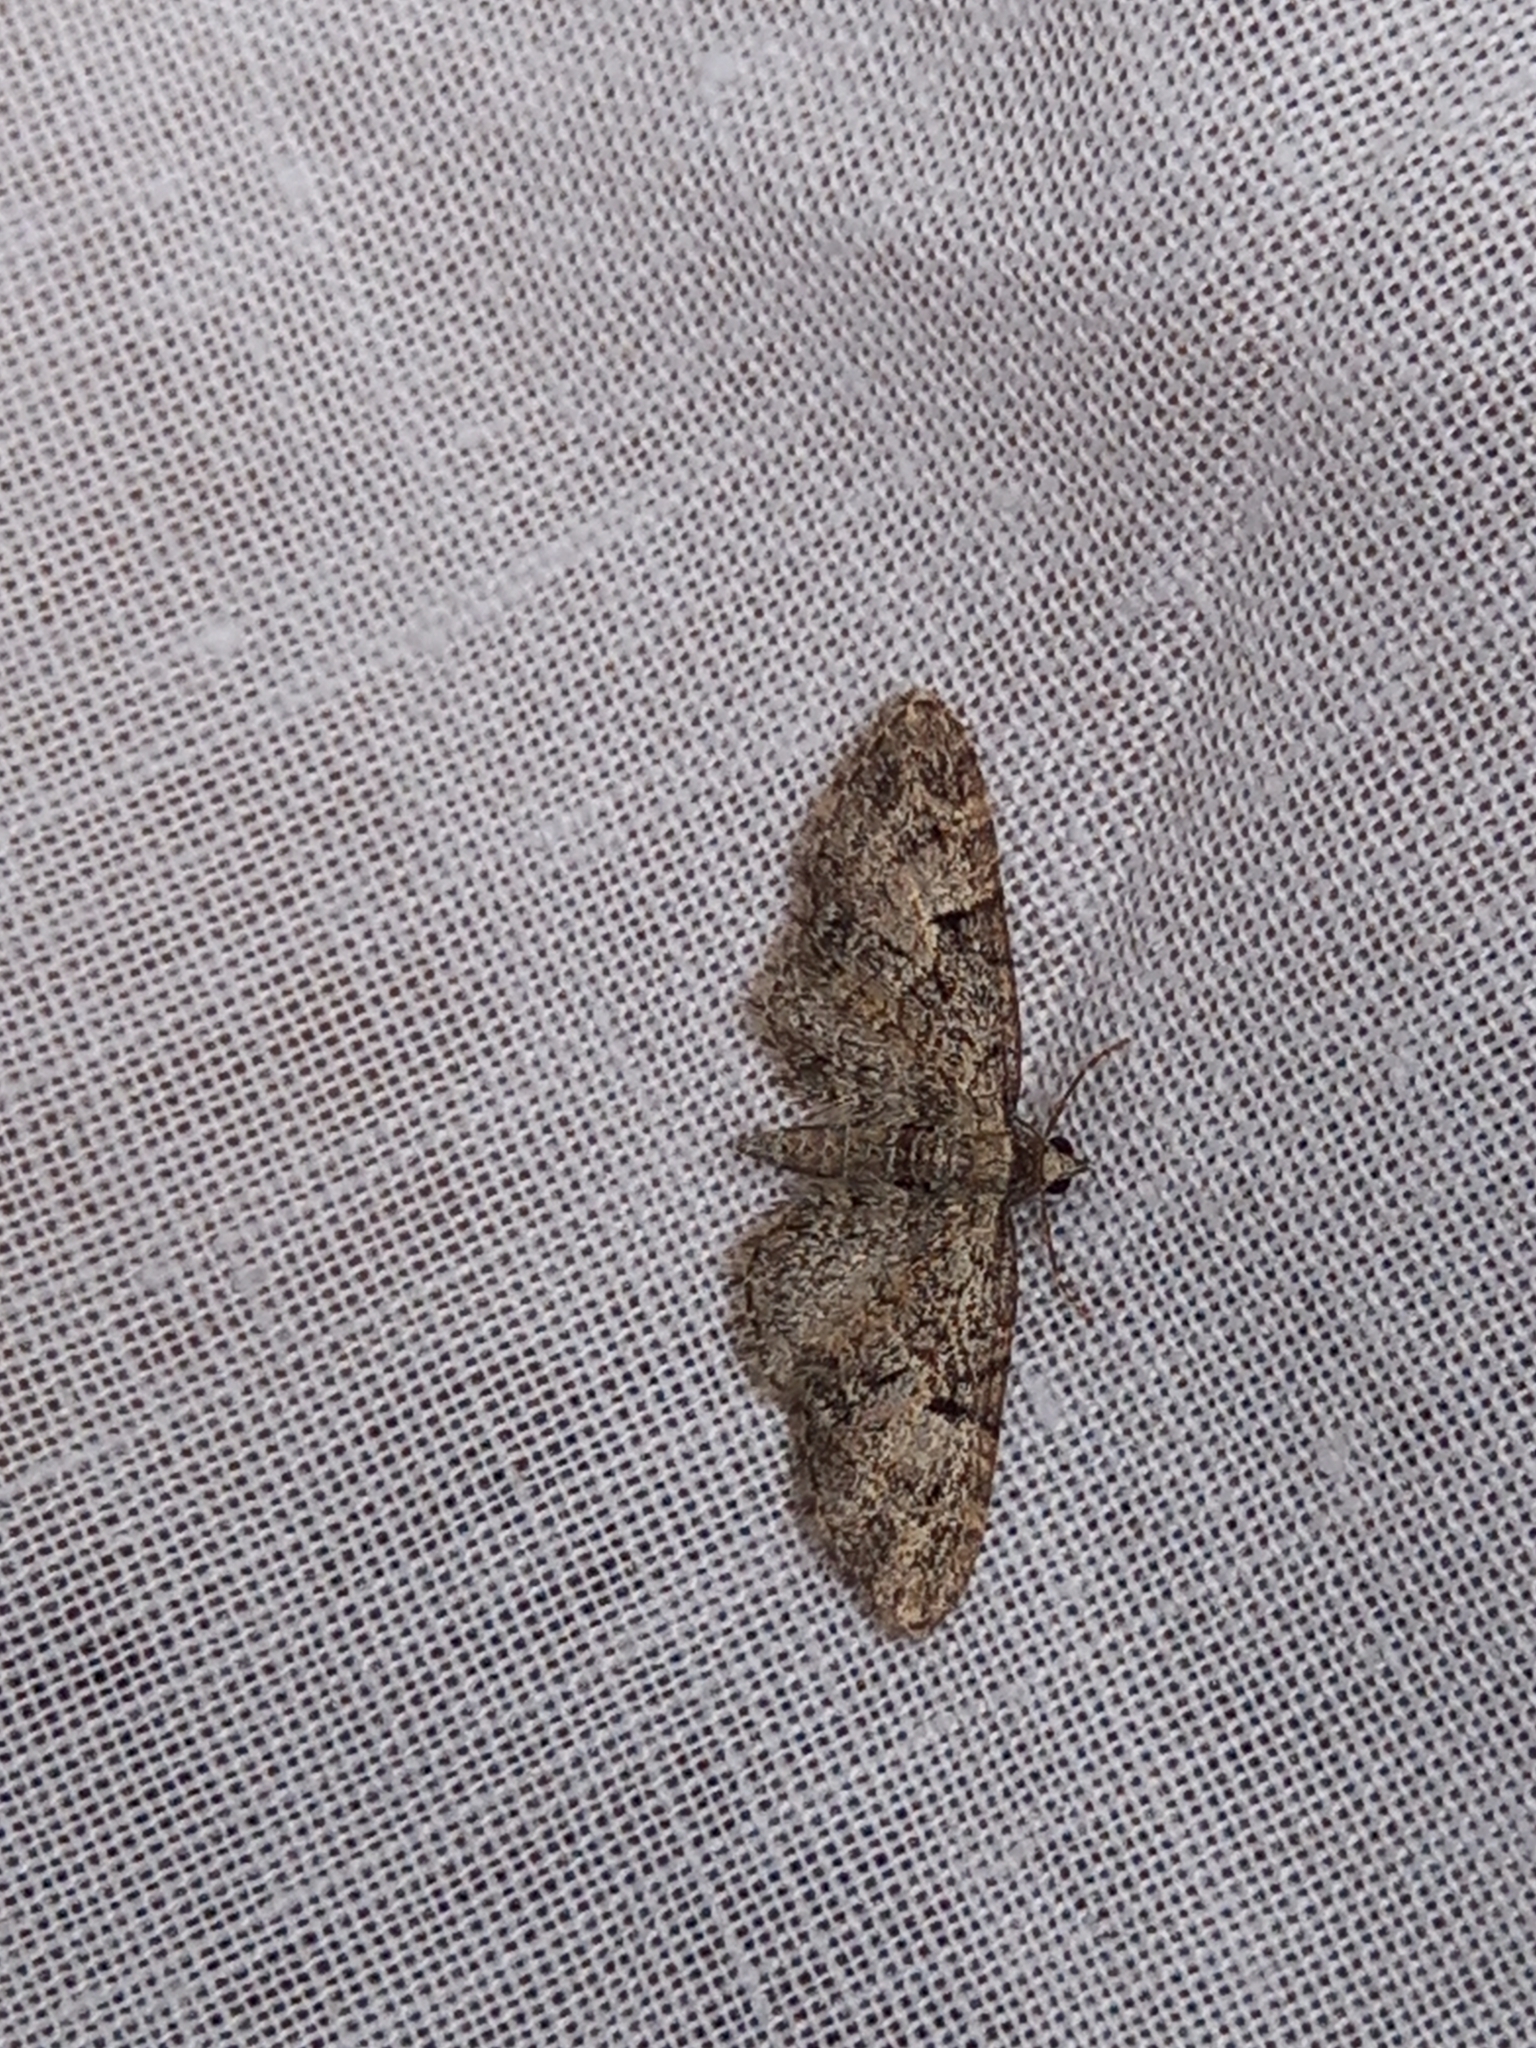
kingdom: Animalia
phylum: Arthropoda
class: Insecta
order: Lepidoptera
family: Geometridae
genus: Eupithecia
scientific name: Eupithecia dodoneata
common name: Oak-tree pug
